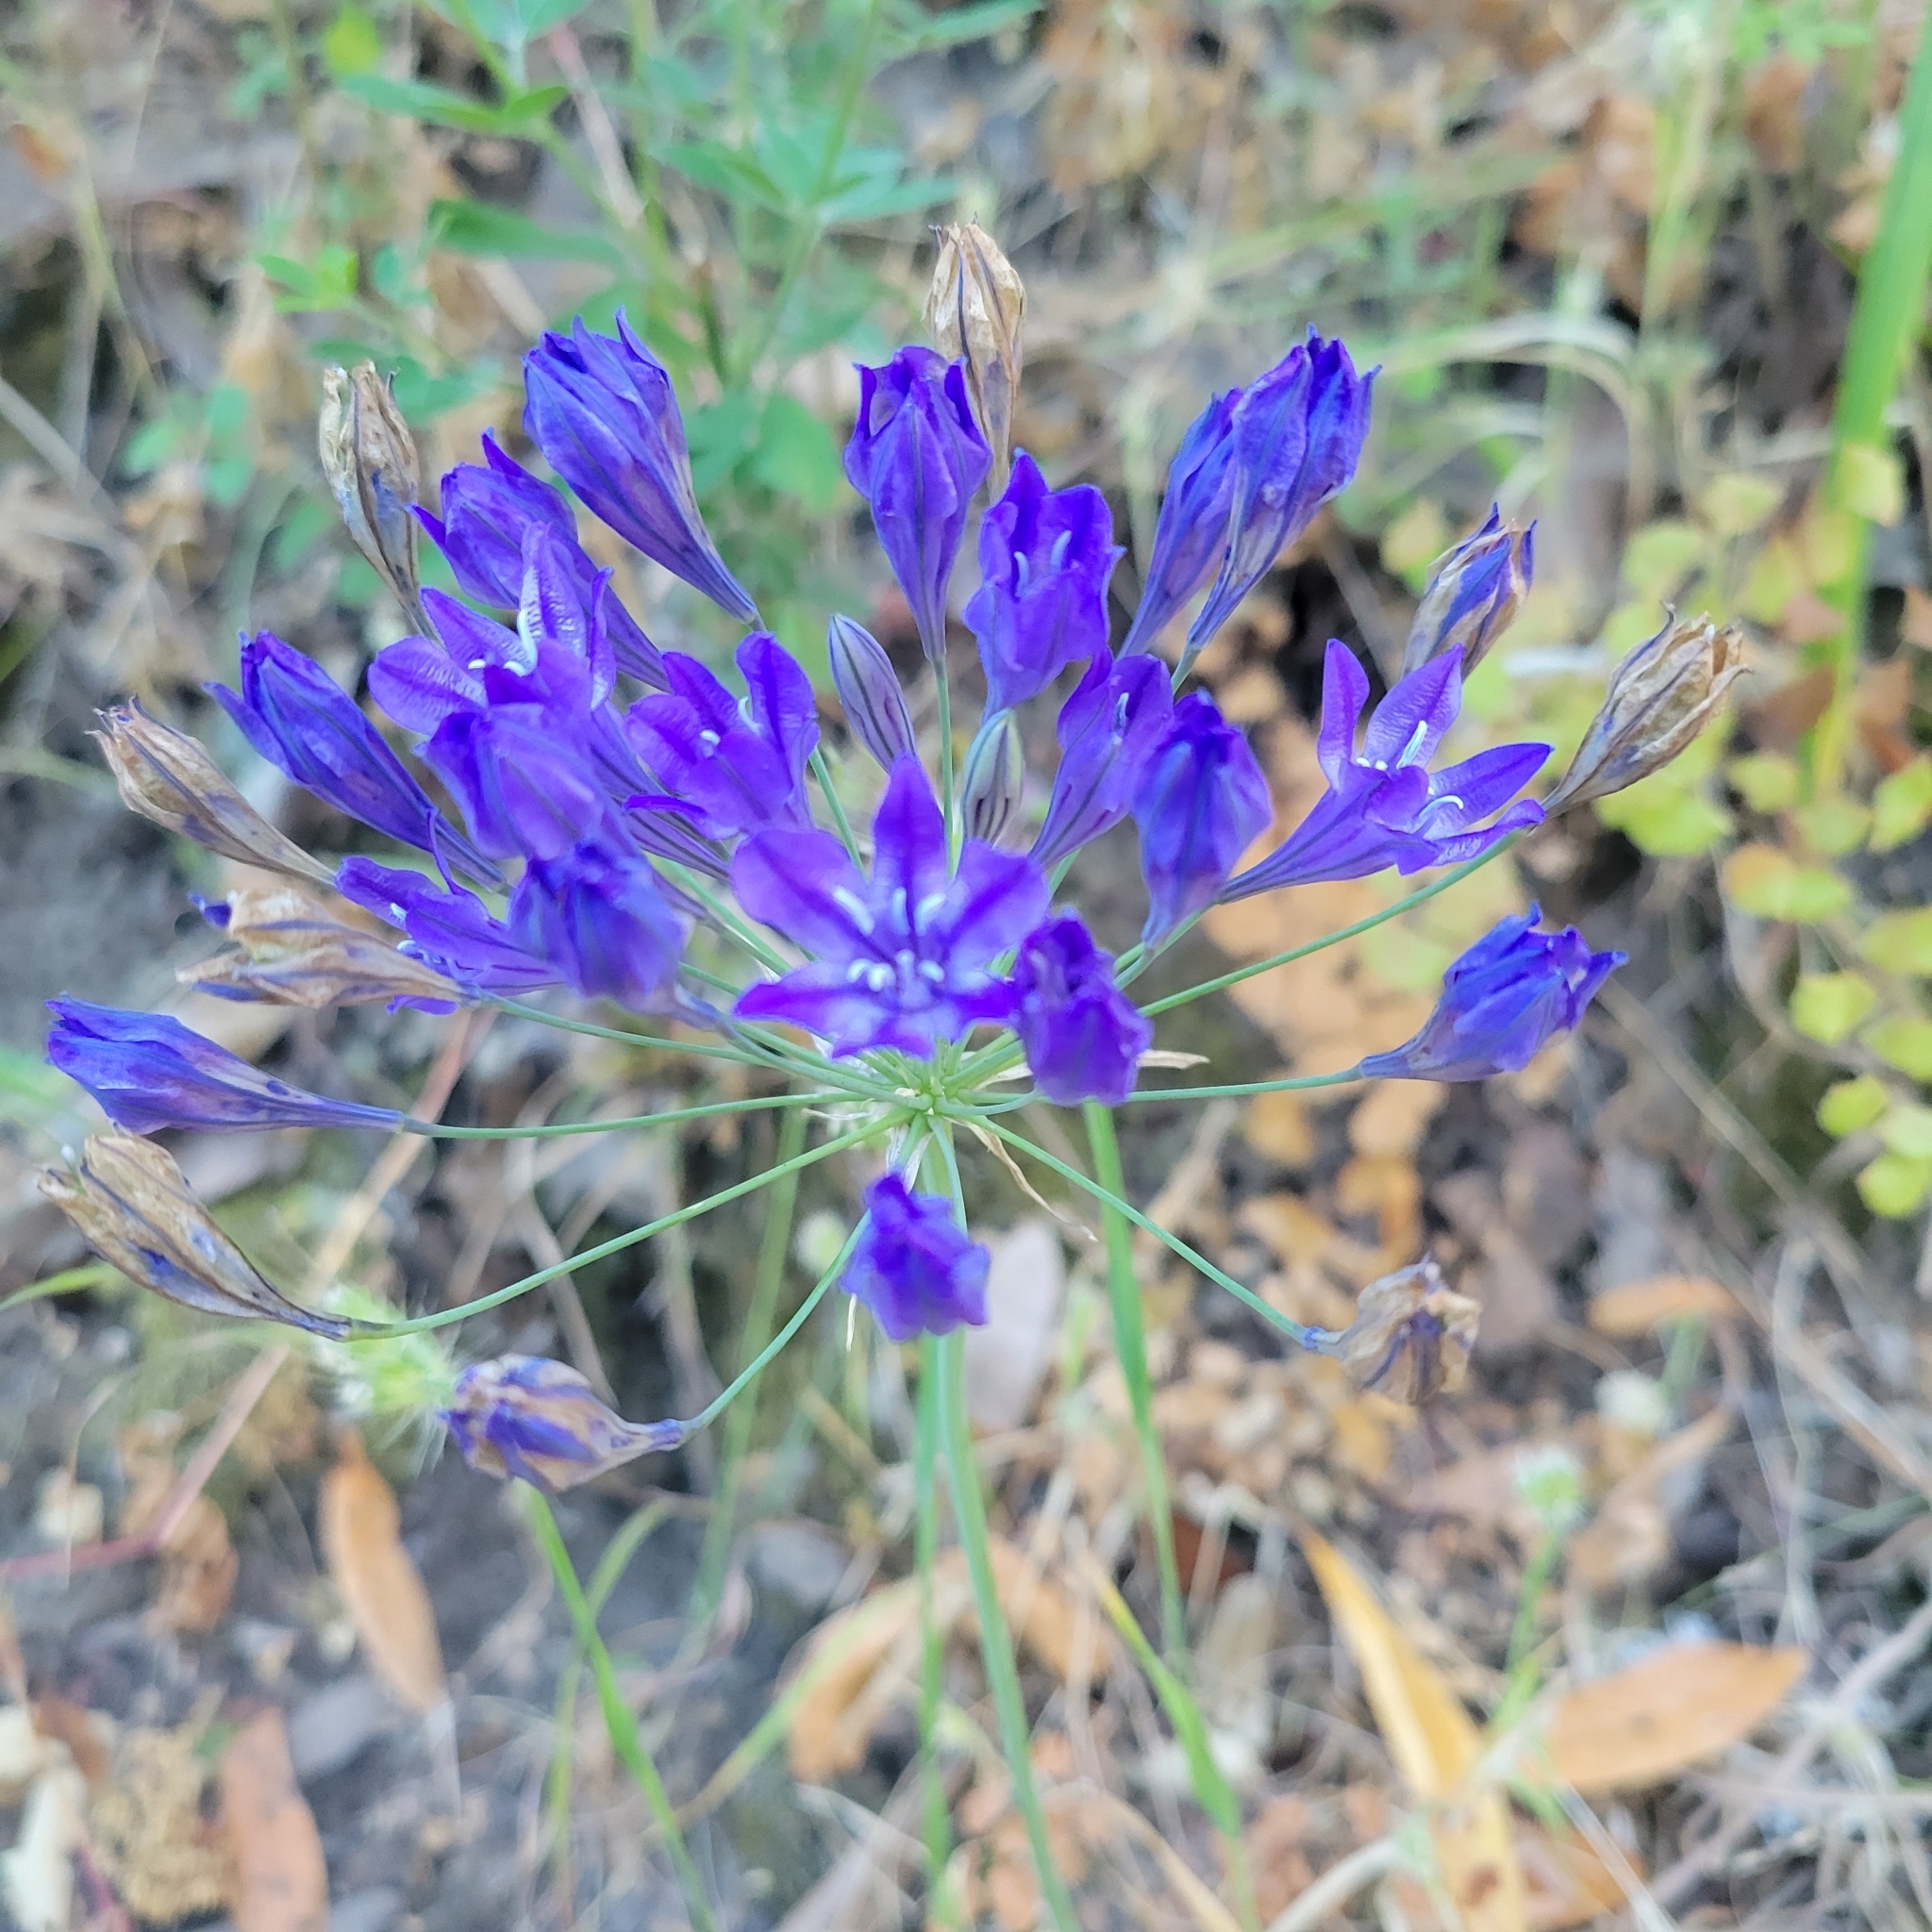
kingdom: Plantae
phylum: Tracheophyta
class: Liliopsida
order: Asparagales
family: Asparagaceae
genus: Triteleia
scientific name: Triteleia laxa
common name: Triplet-lily
